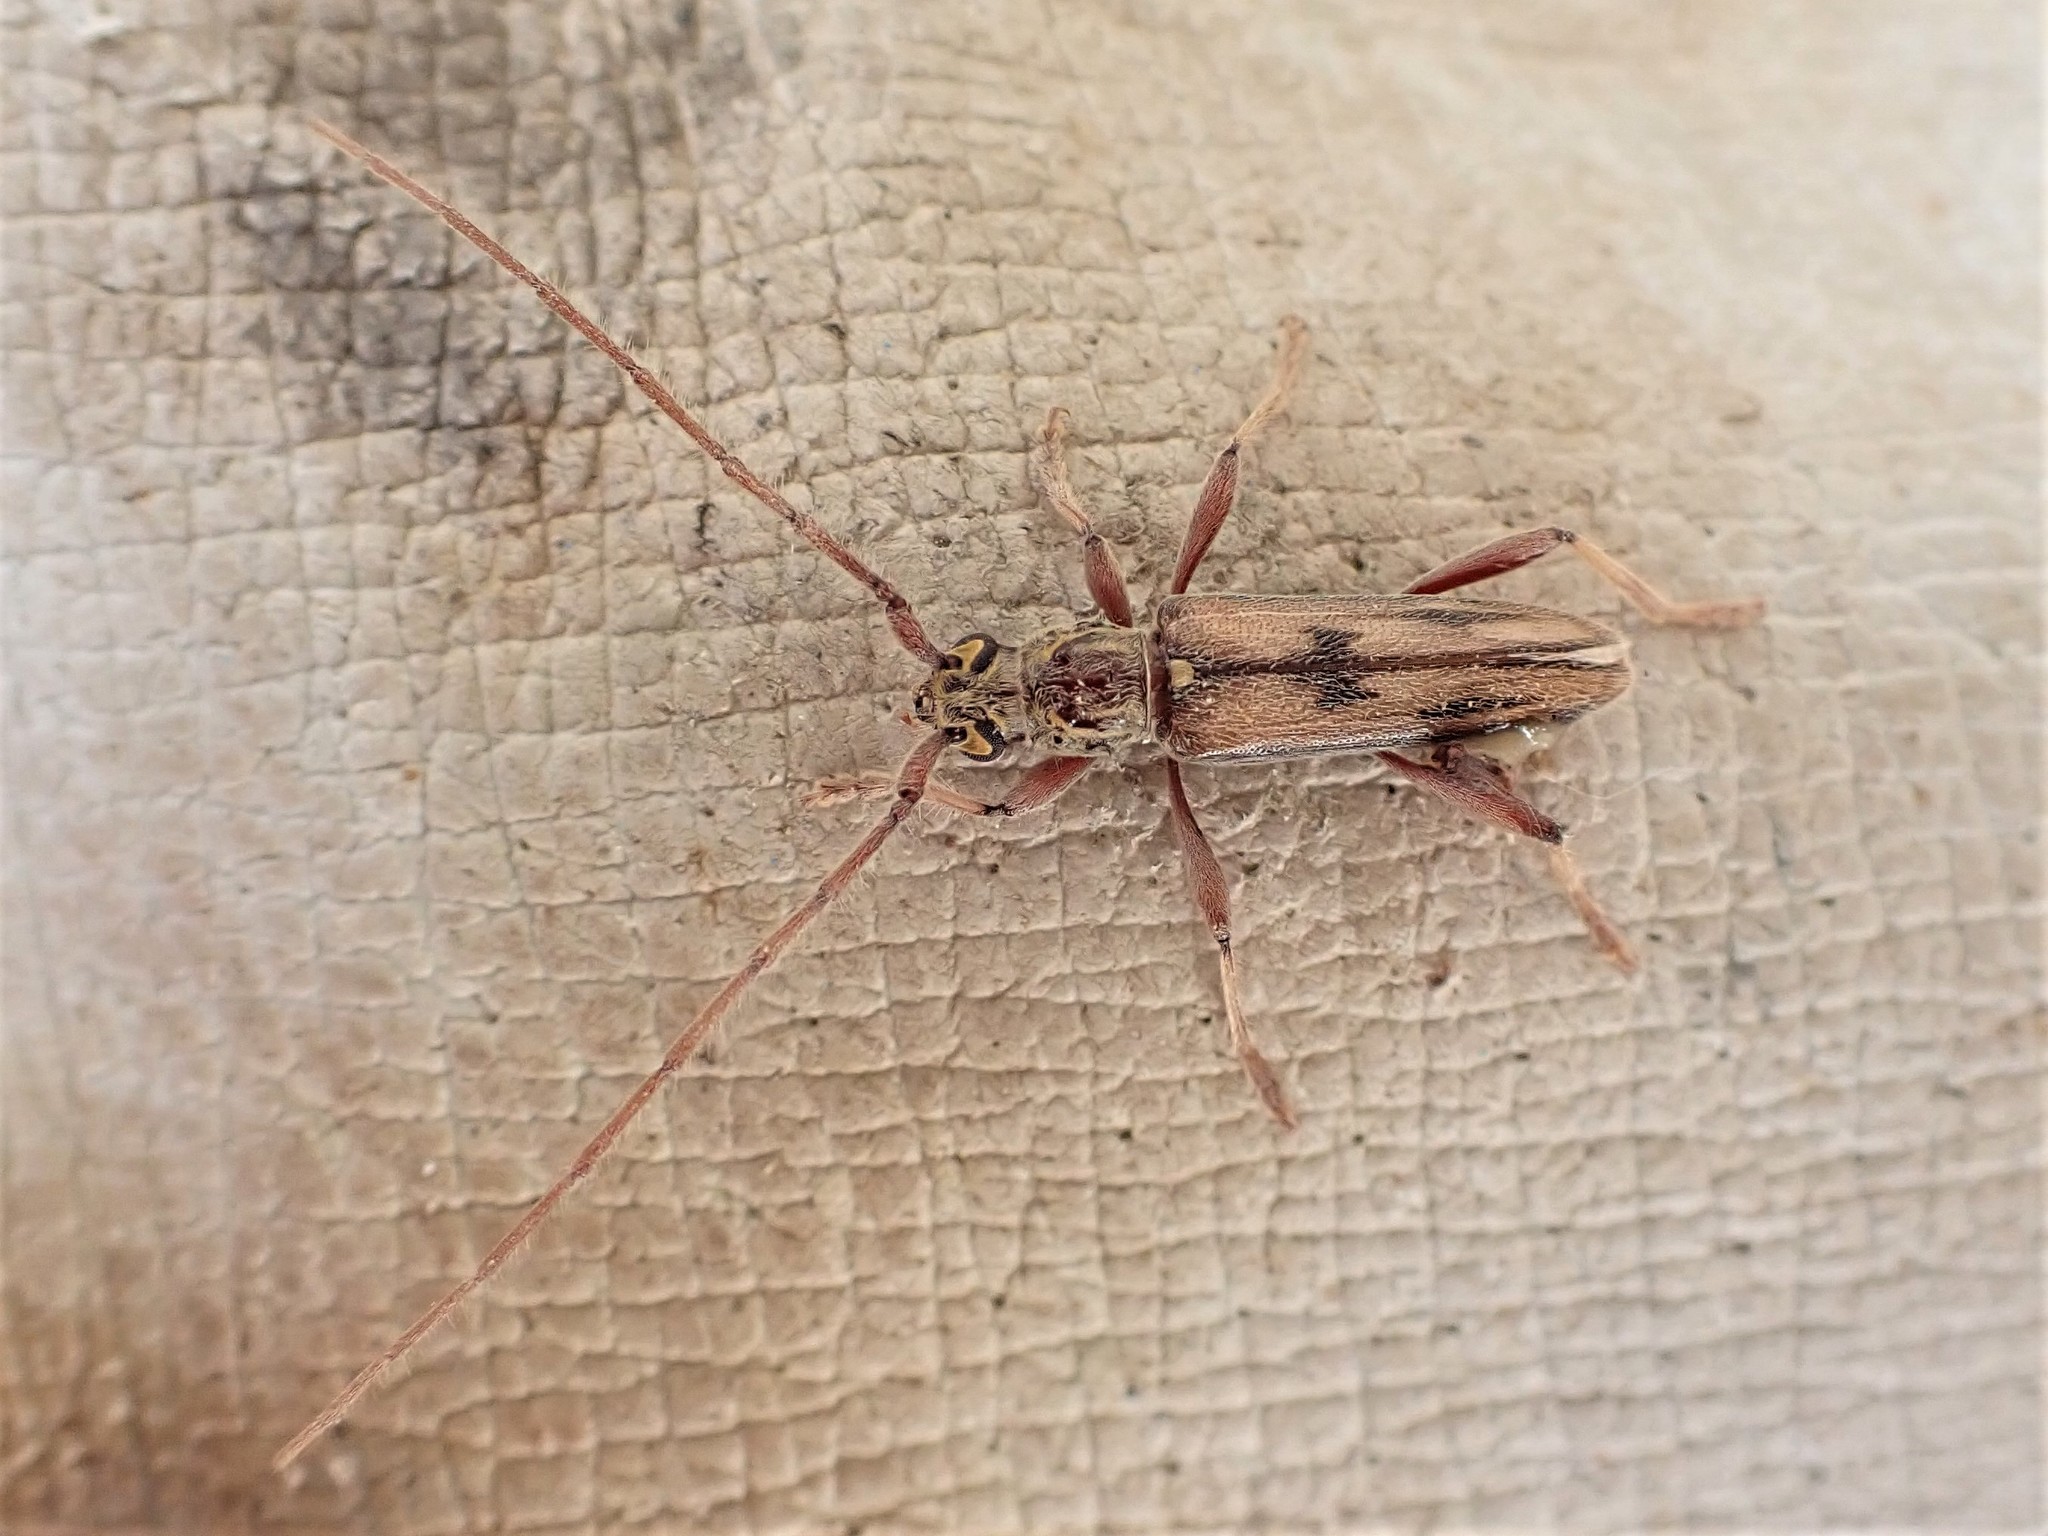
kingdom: Animalia
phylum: Arthropoda
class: Insecta
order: Coleoptera
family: Cerambycidae
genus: Didymocantha
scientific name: Didymocantha sublineata
